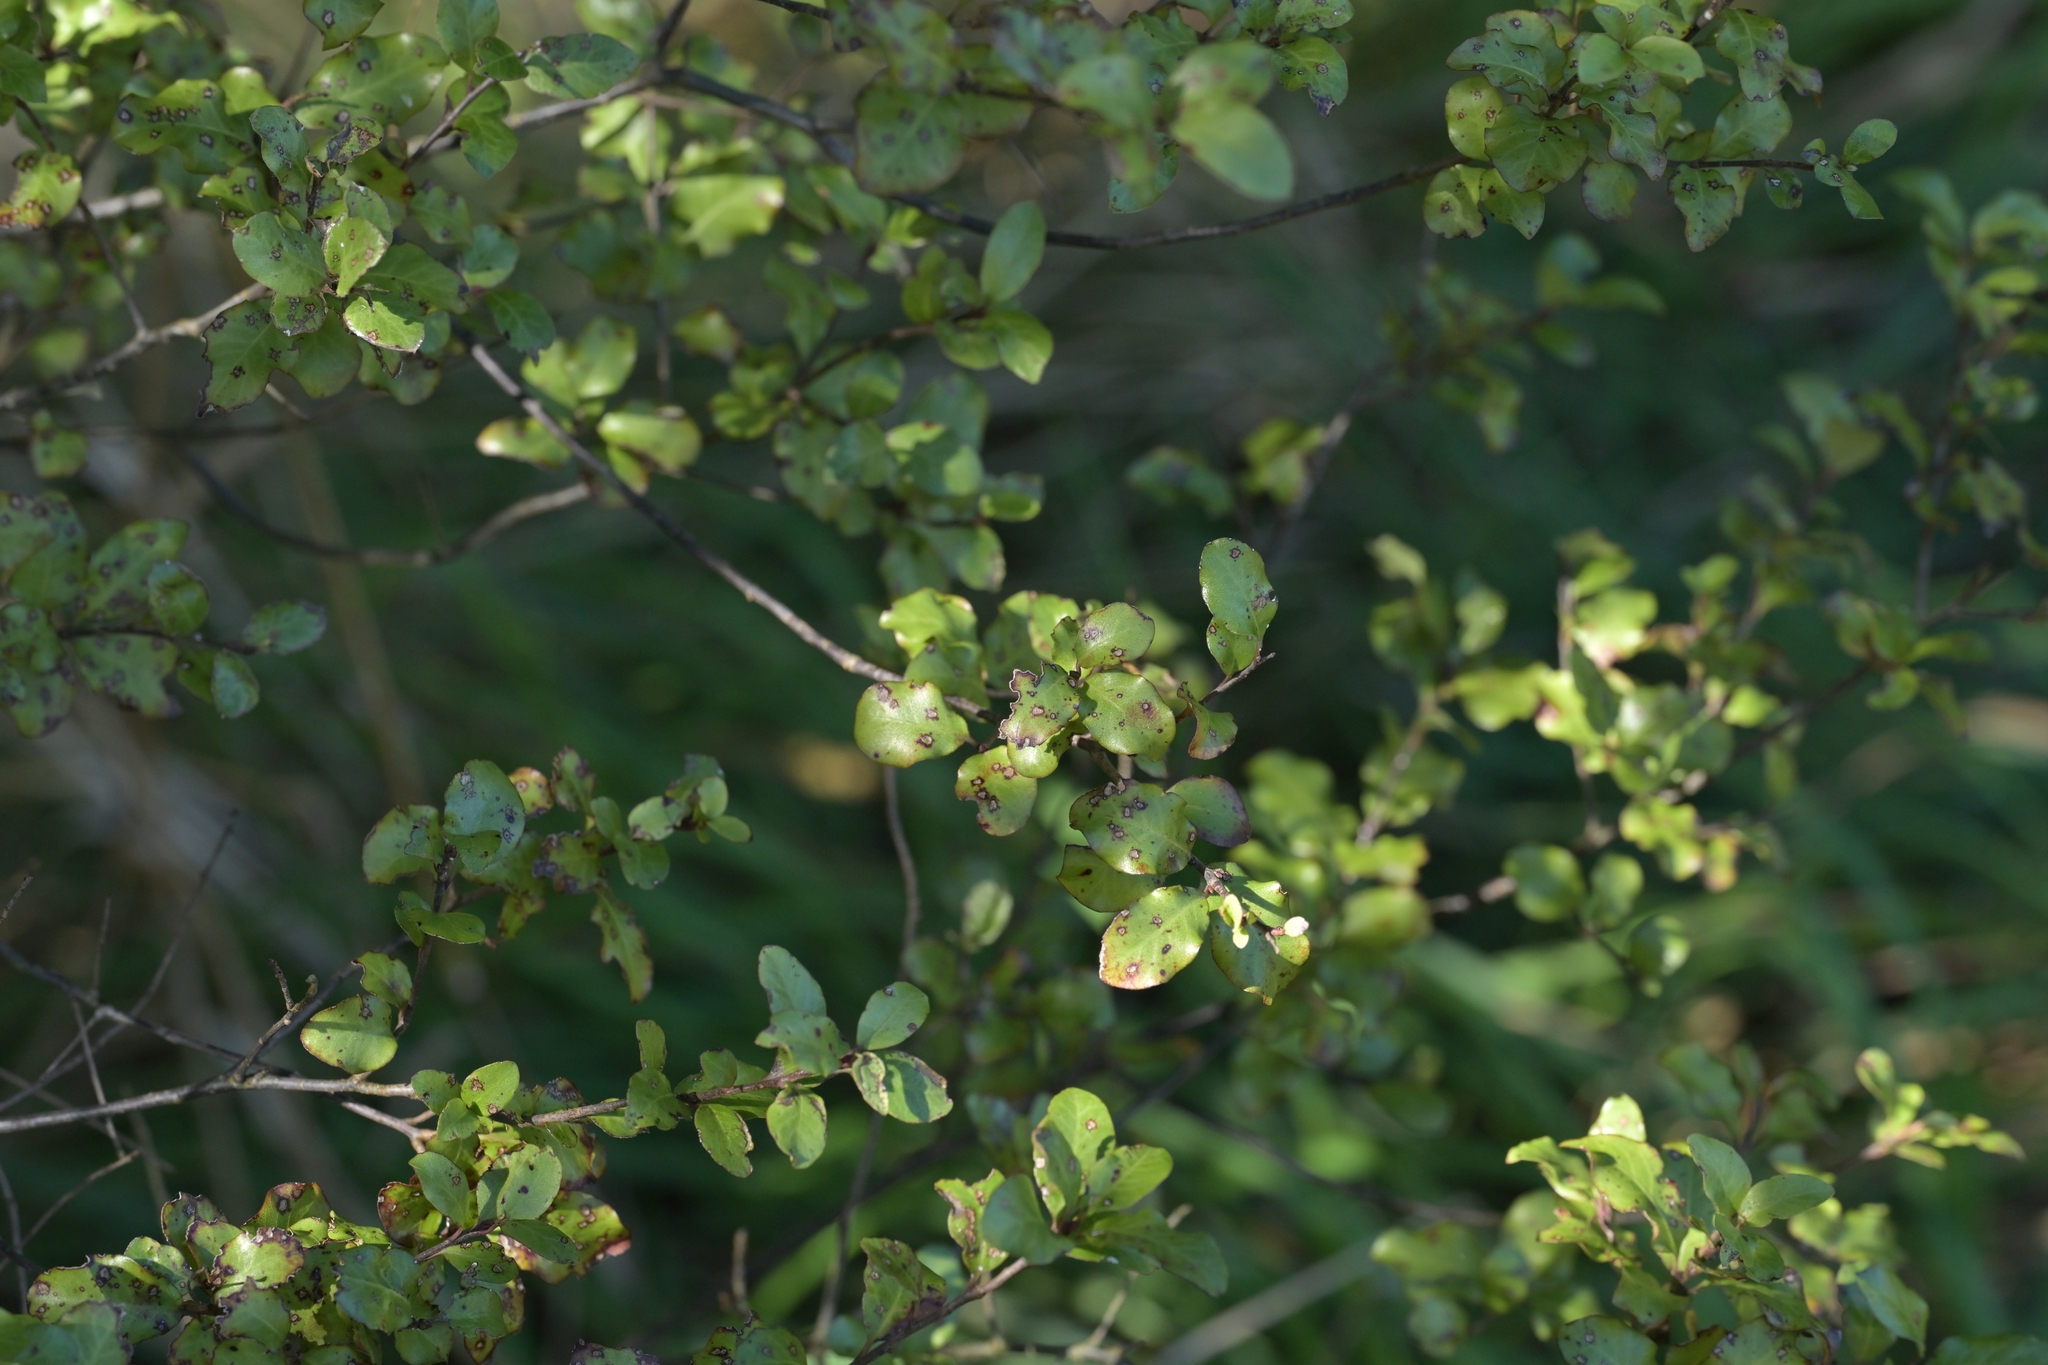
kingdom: Plantae
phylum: Tracheophyta
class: Magnoliopsida
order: Apiales
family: Pittosporaceae
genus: Pittosporum
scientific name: Pittosporum tenuifolium
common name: Kohuhu
